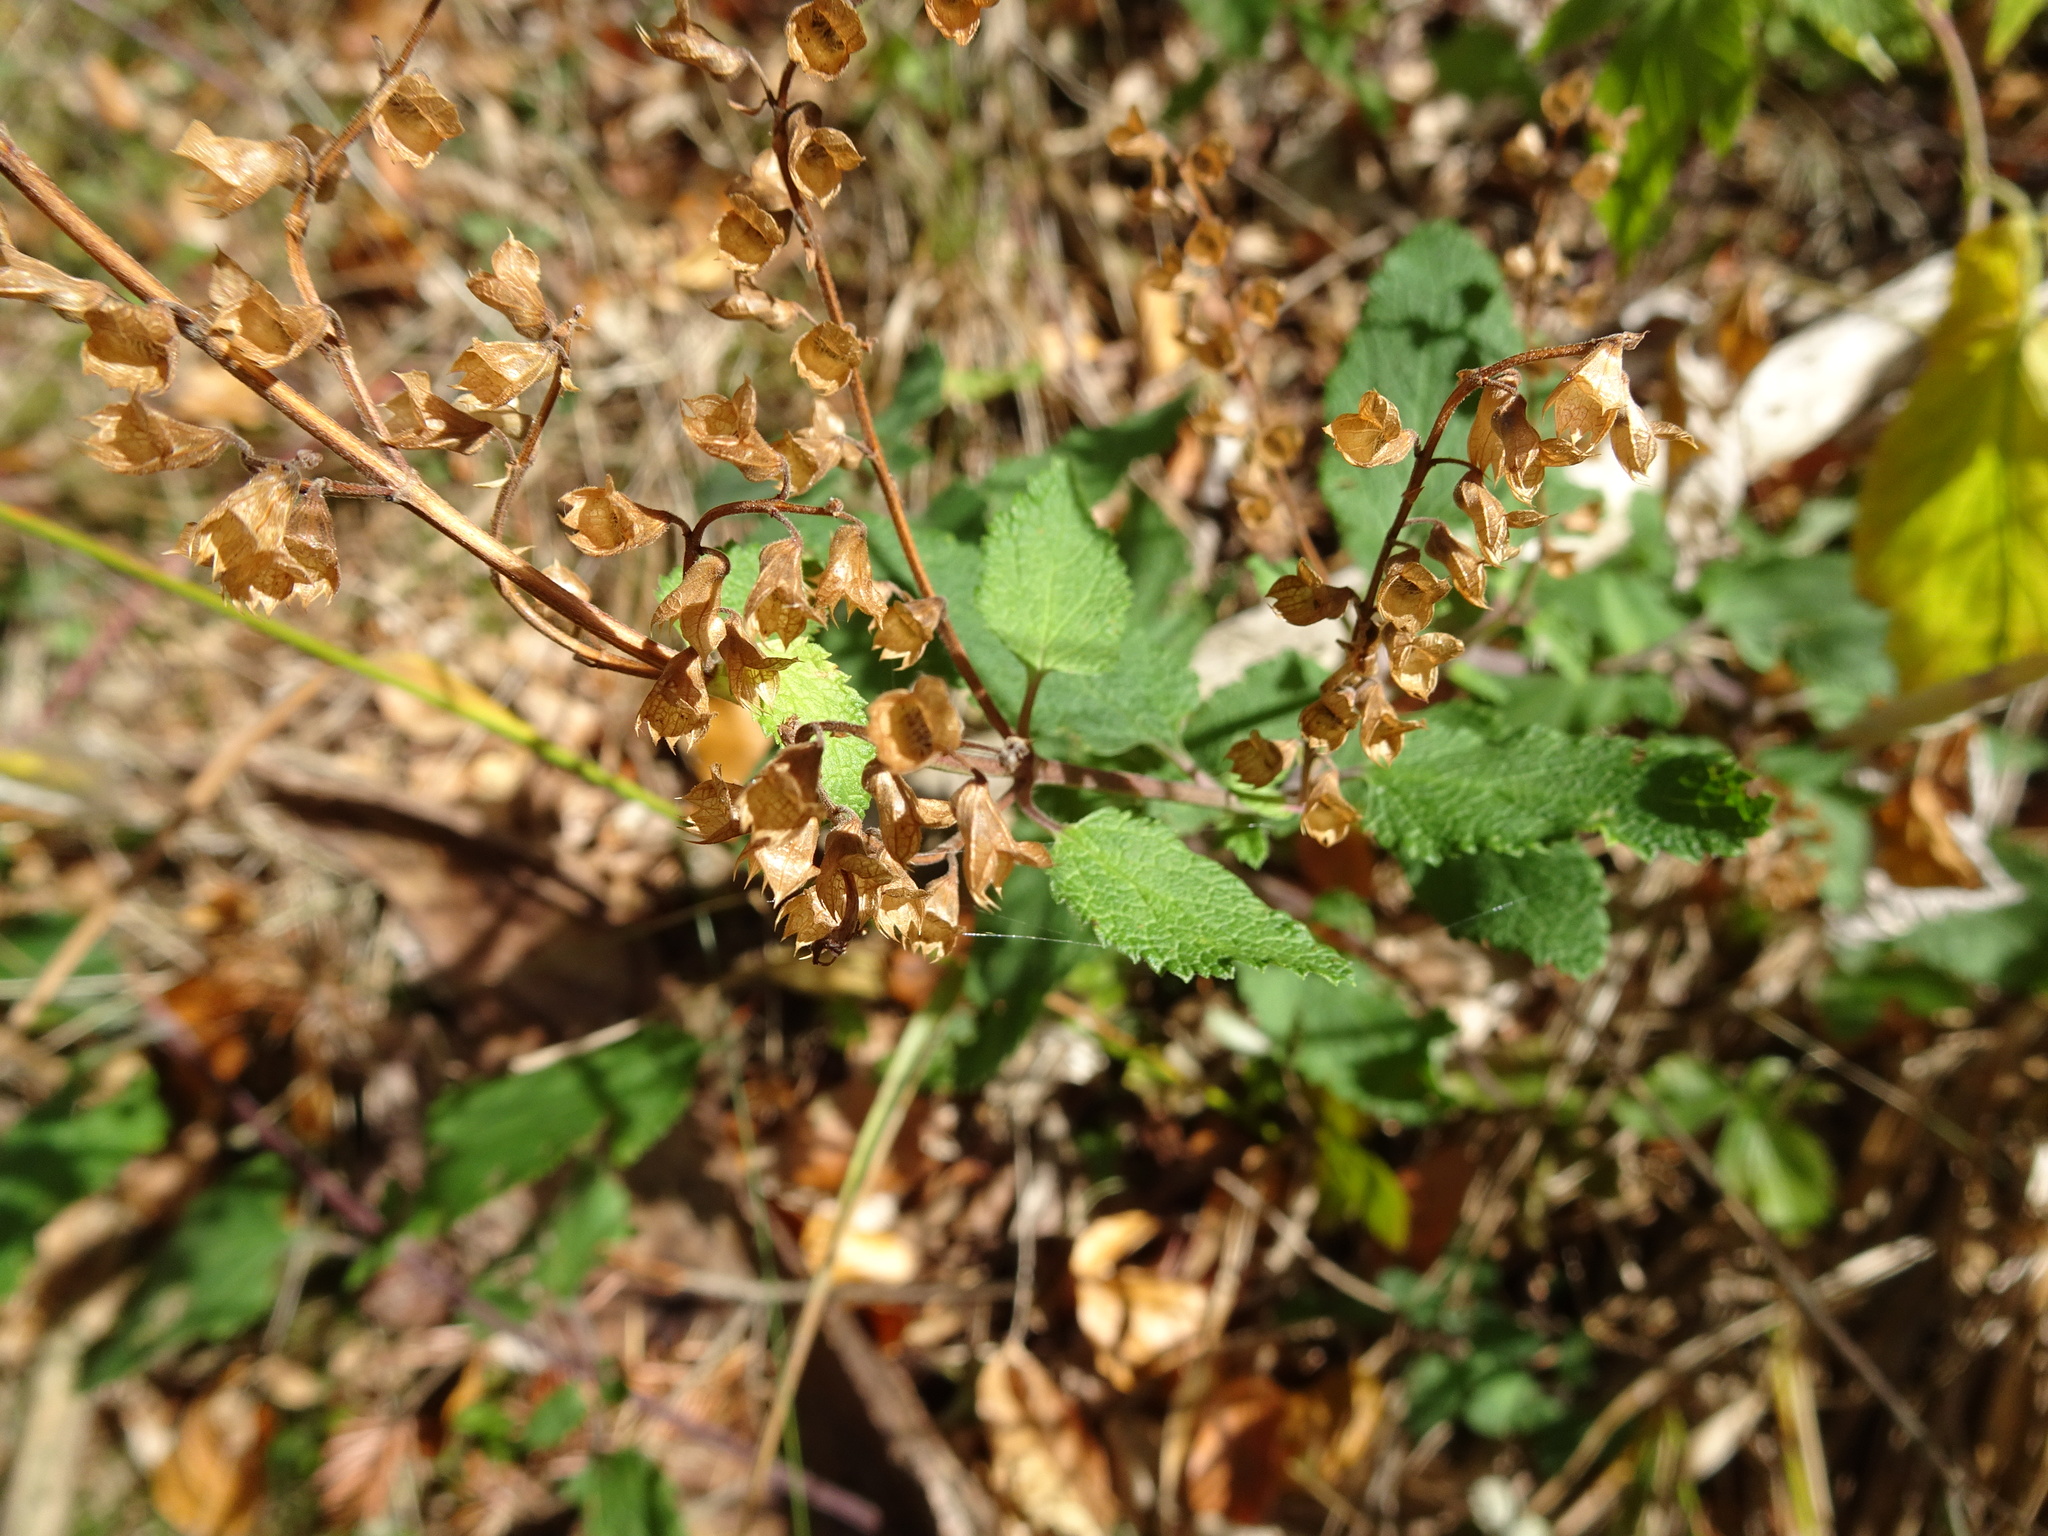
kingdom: Plantae
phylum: Tracheophyta
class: Magnoliopsida
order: Lamiales
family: Lamiaceae
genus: Teucrium
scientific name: Teucrium scorodonia
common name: Woodland germander
